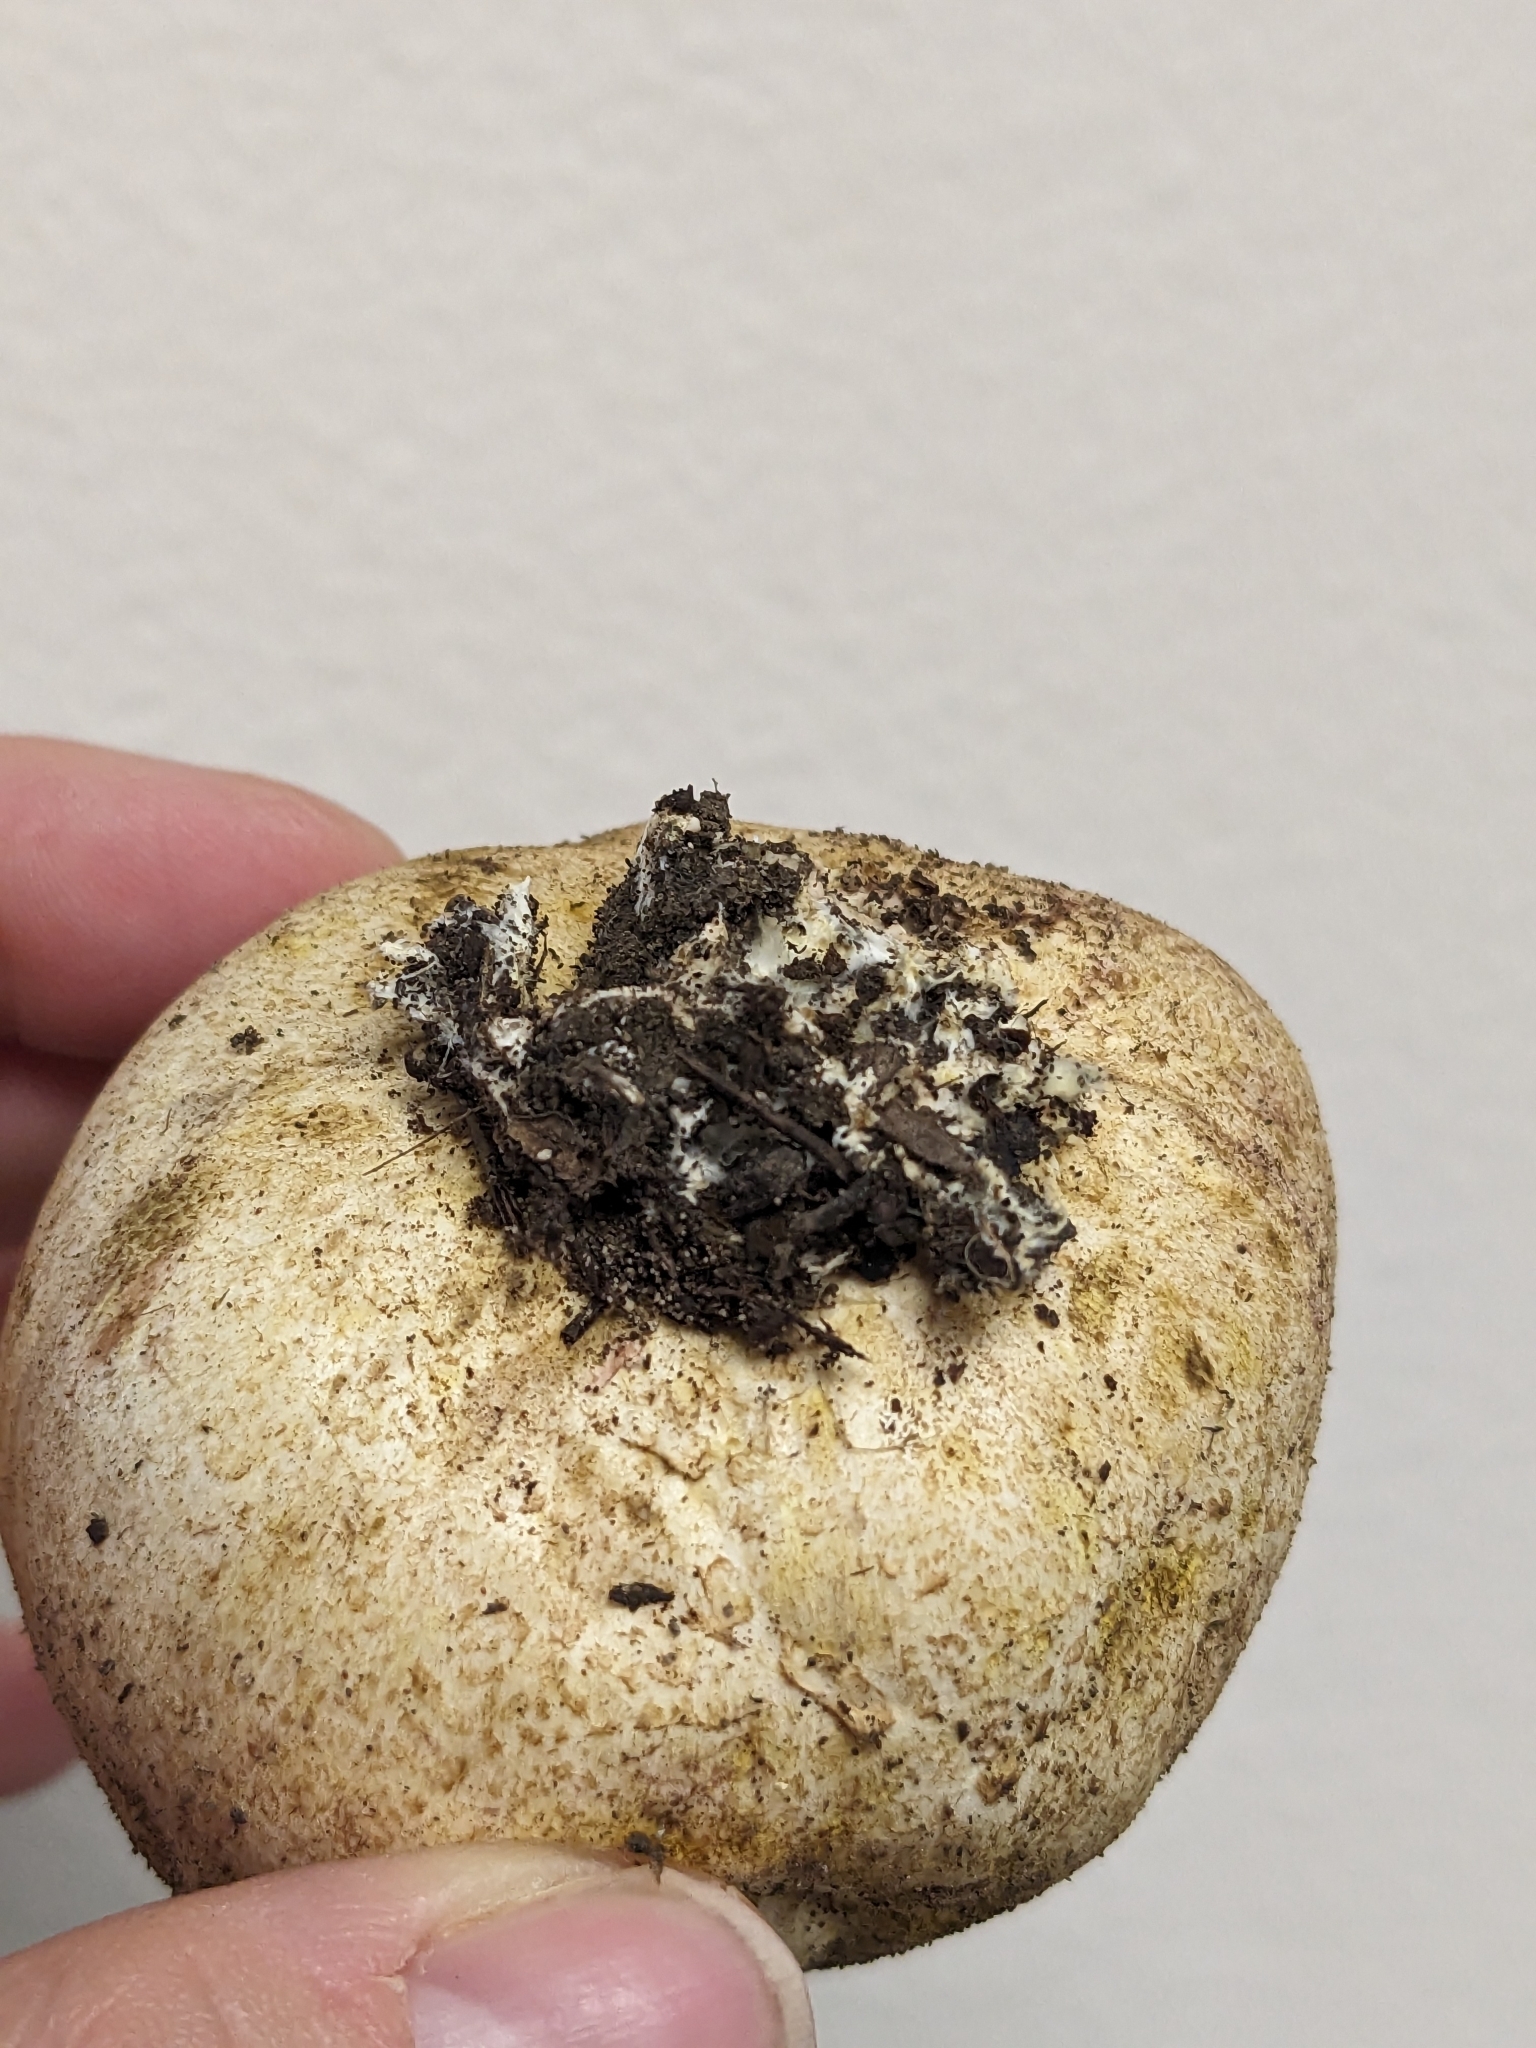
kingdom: Fungi
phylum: Basidiomycota
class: Agaricomycetes
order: Boletales
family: Sclerodermataceae
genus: Scleroderma
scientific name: Scleroderma cepa
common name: Onion earthball
